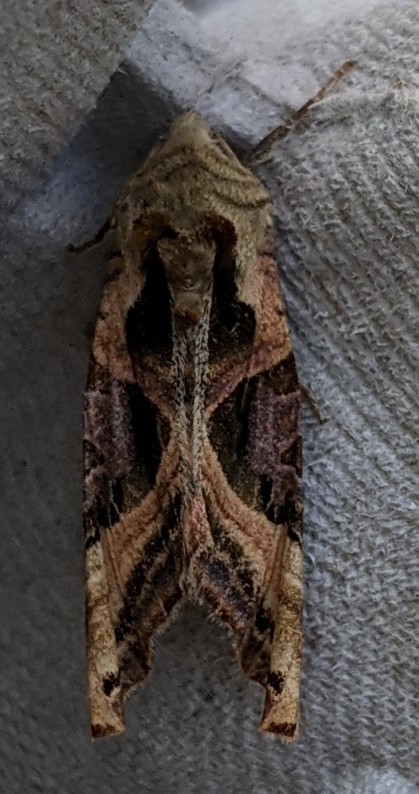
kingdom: Animalia
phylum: Arthropoda
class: Insecta
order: Lepidoptera
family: Noctuidae
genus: Phlogophora
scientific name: Phlogophora iris
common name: Olive angle shades
